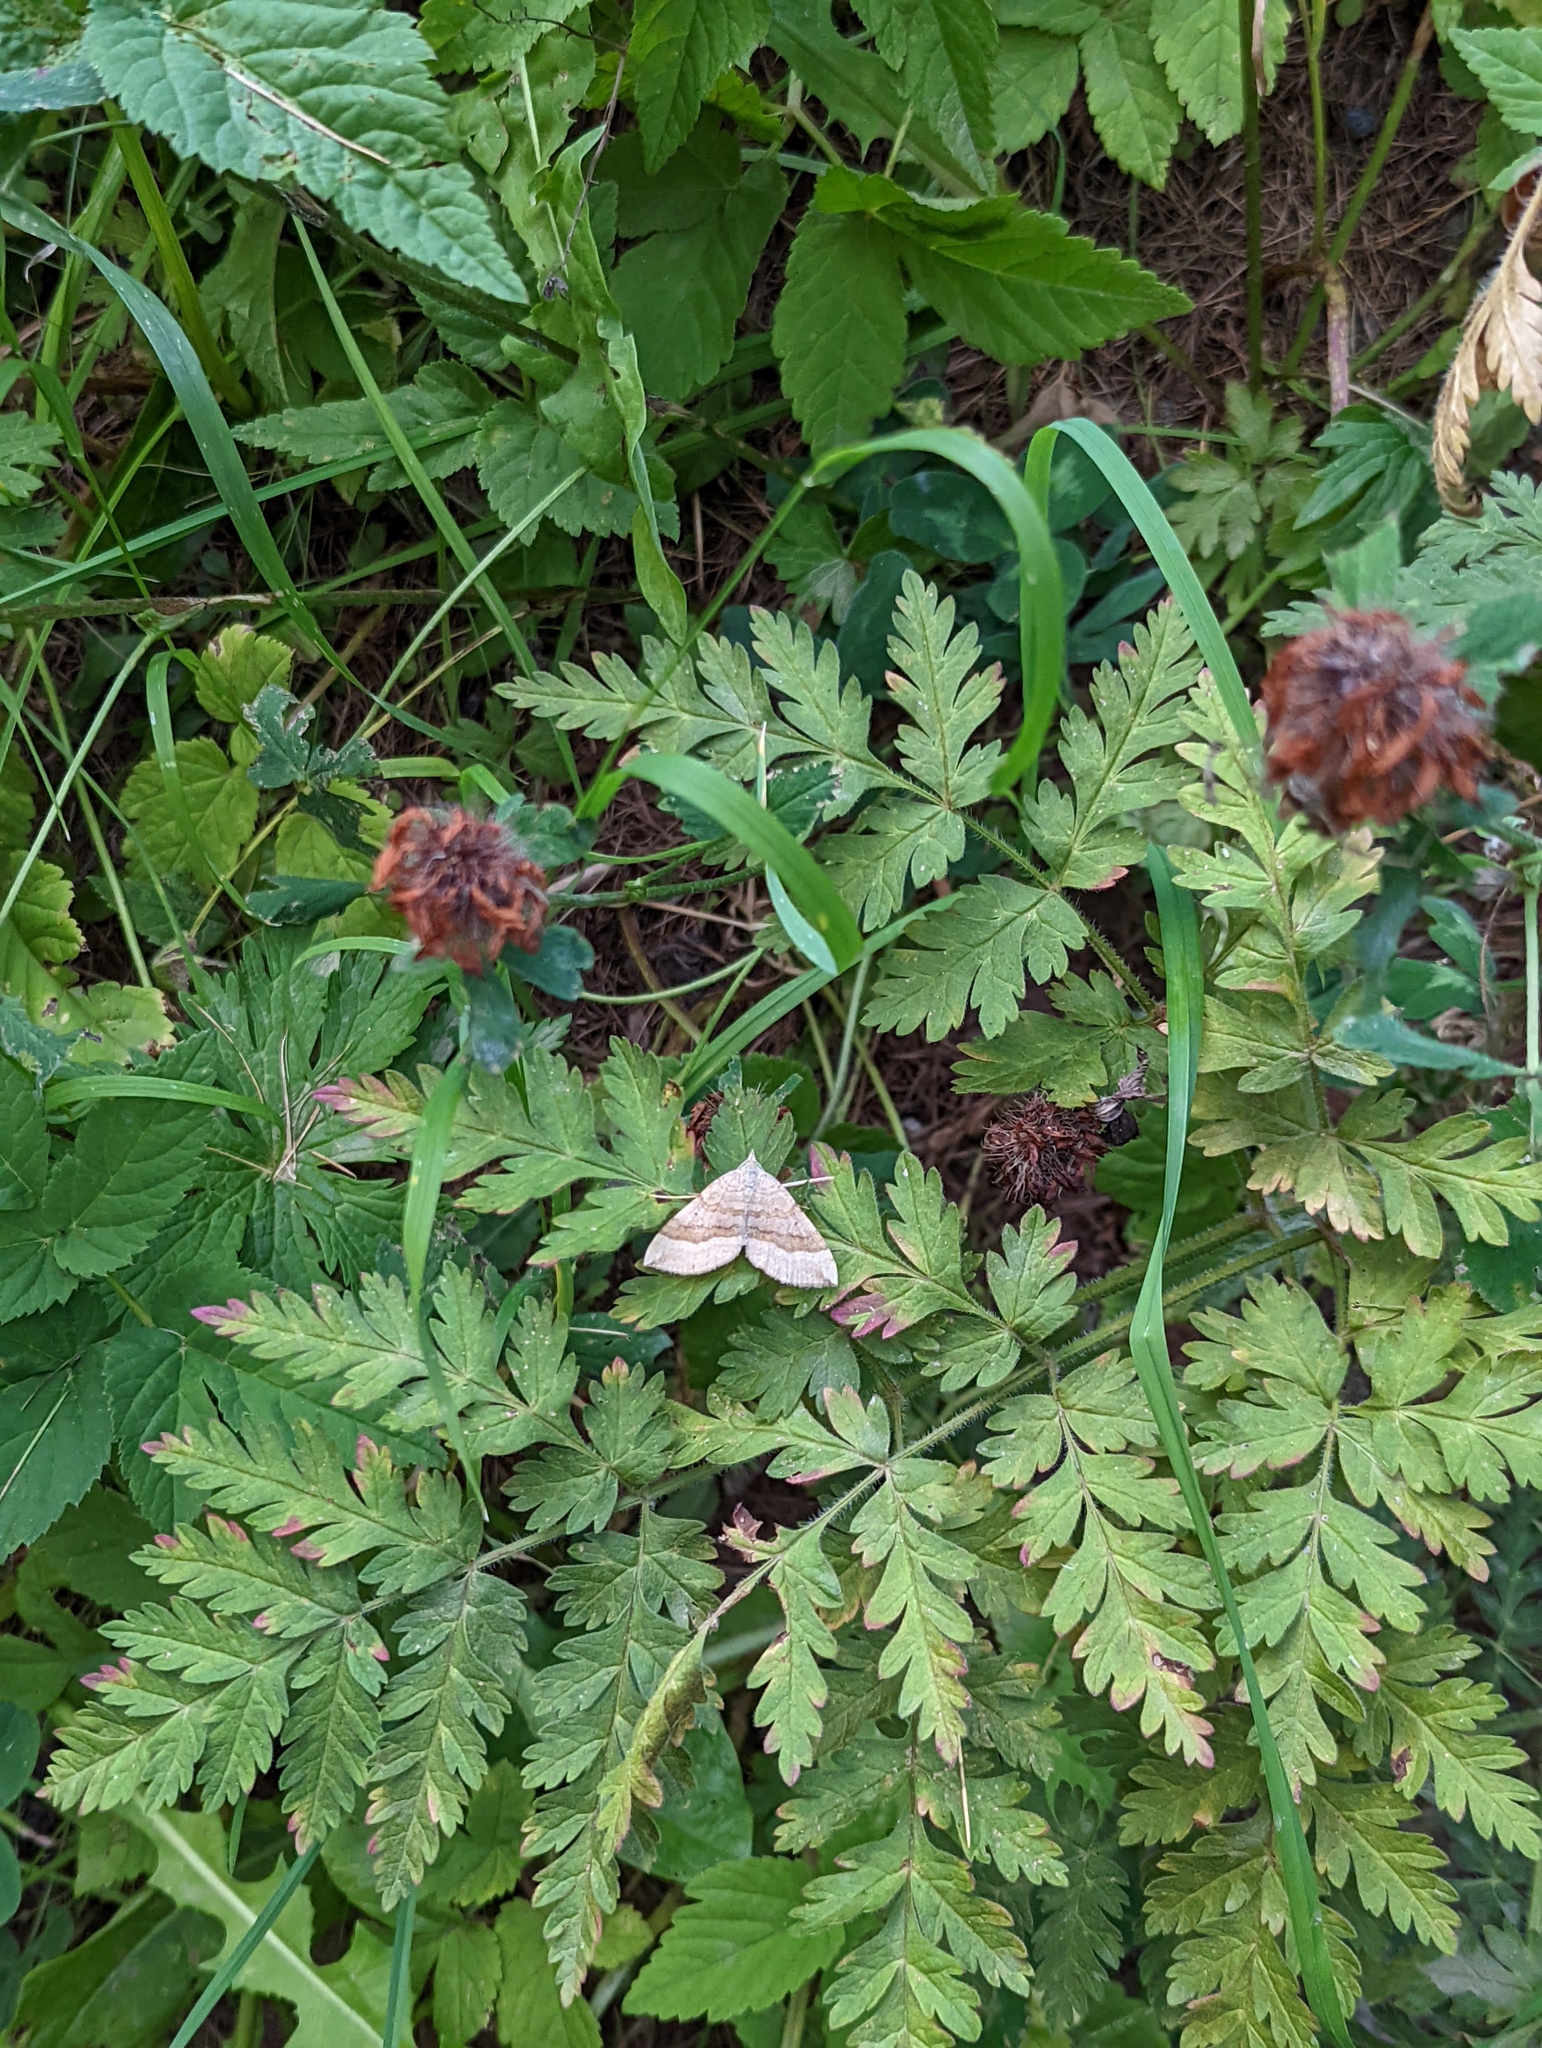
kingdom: Animalia
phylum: Arthropoda
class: Insecta
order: Lepidoptera
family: Geometridae
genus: Scotopteryx
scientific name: Scotopteryx chenopodiata
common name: Shaded broad-bar
